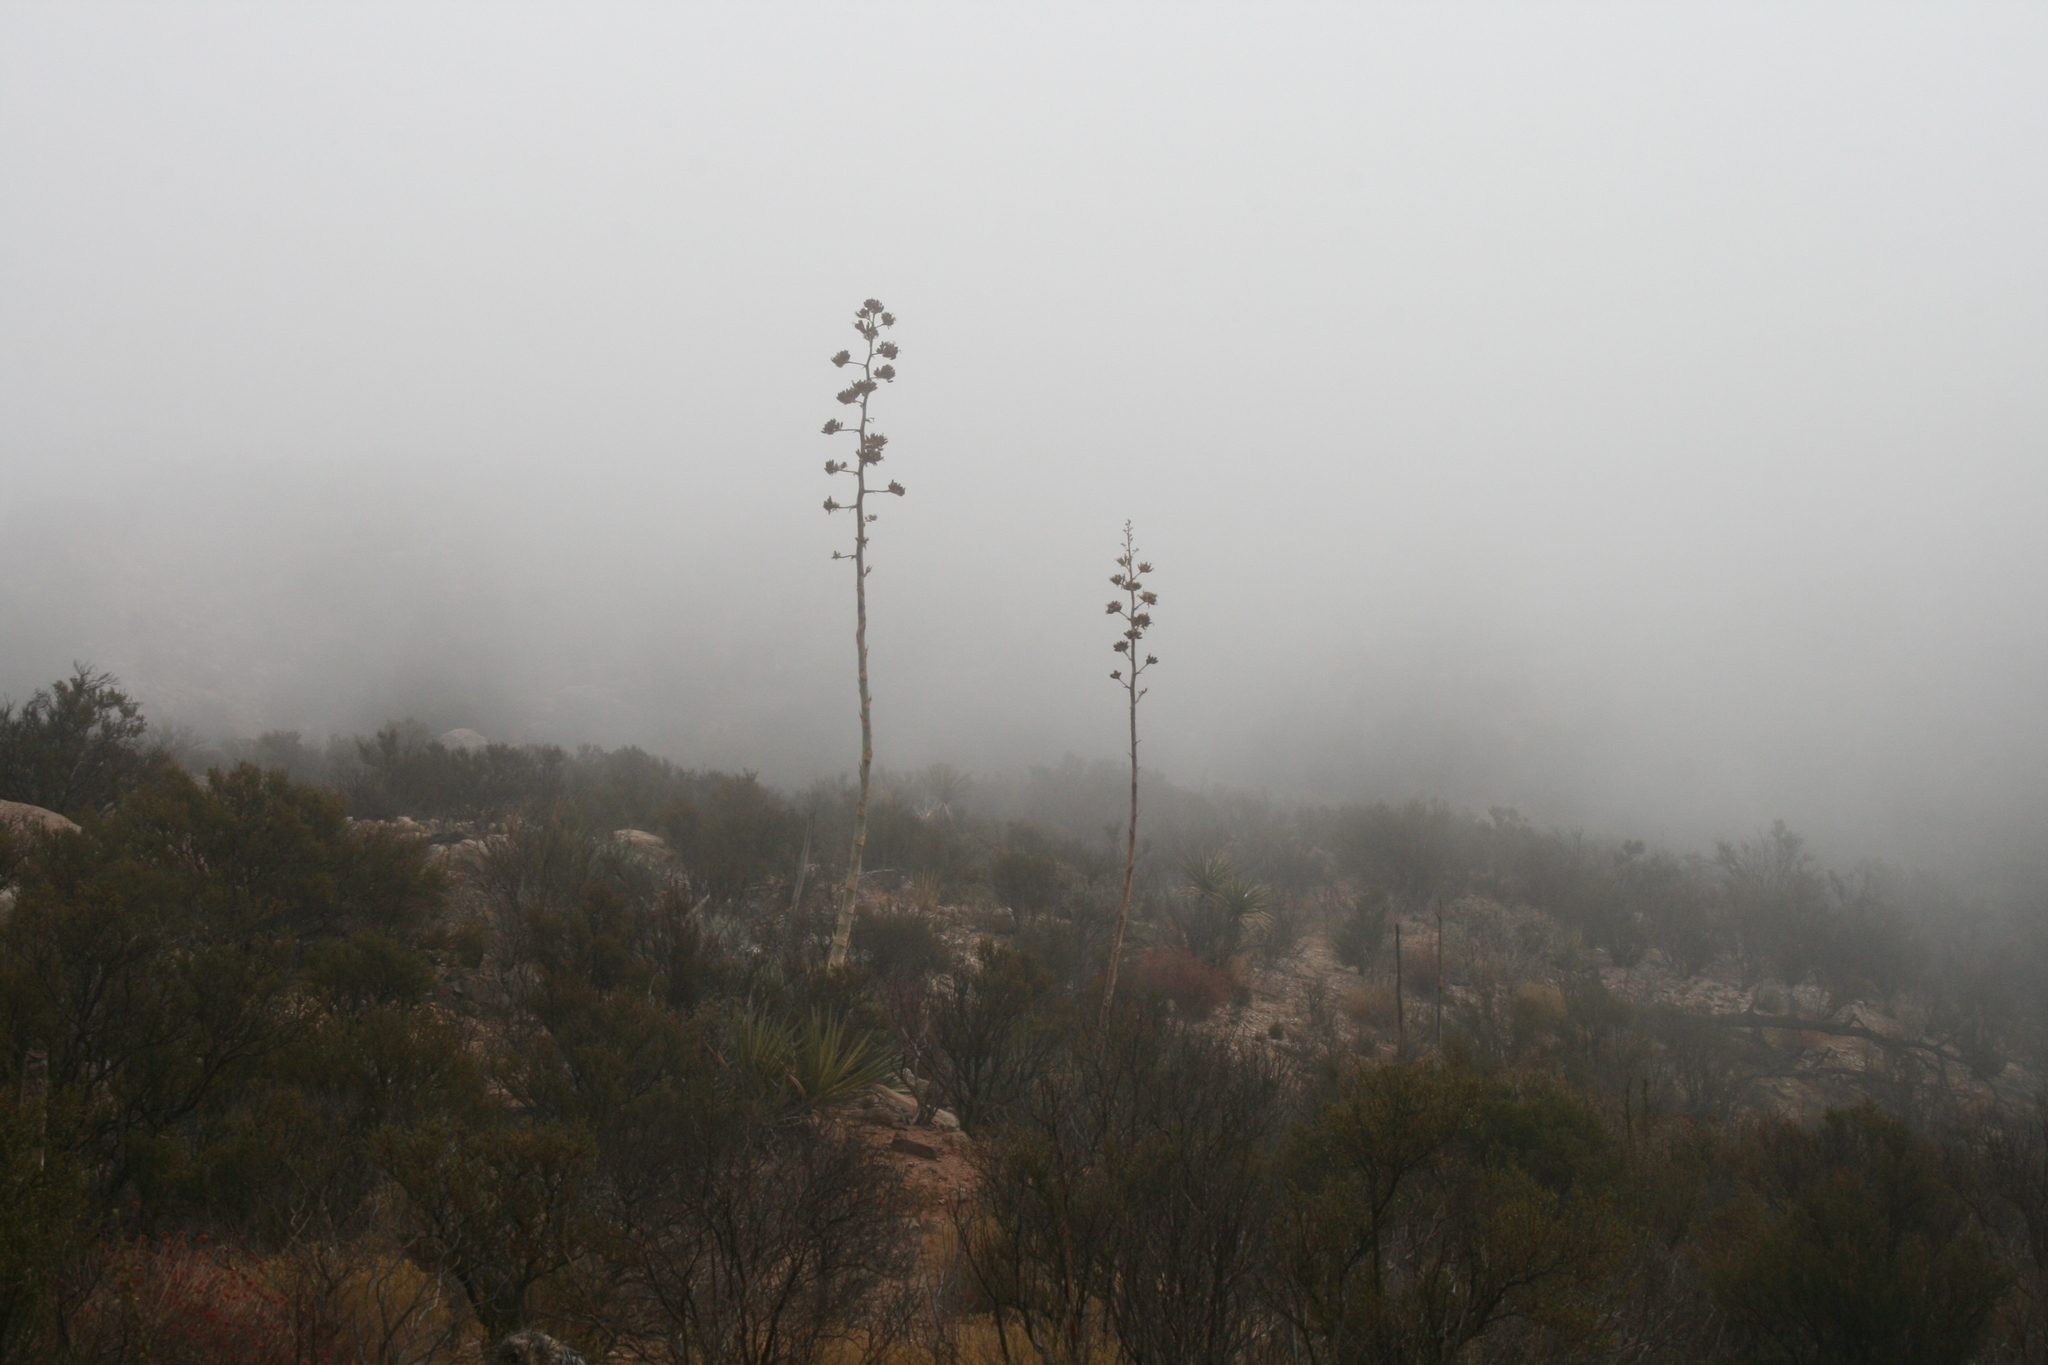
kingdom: Plantae
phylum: Tracheophyta
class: Liliopsida
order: Asparagales
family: Asparagaceae
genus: Agave
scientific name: Agave deserti
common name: Desert agave
